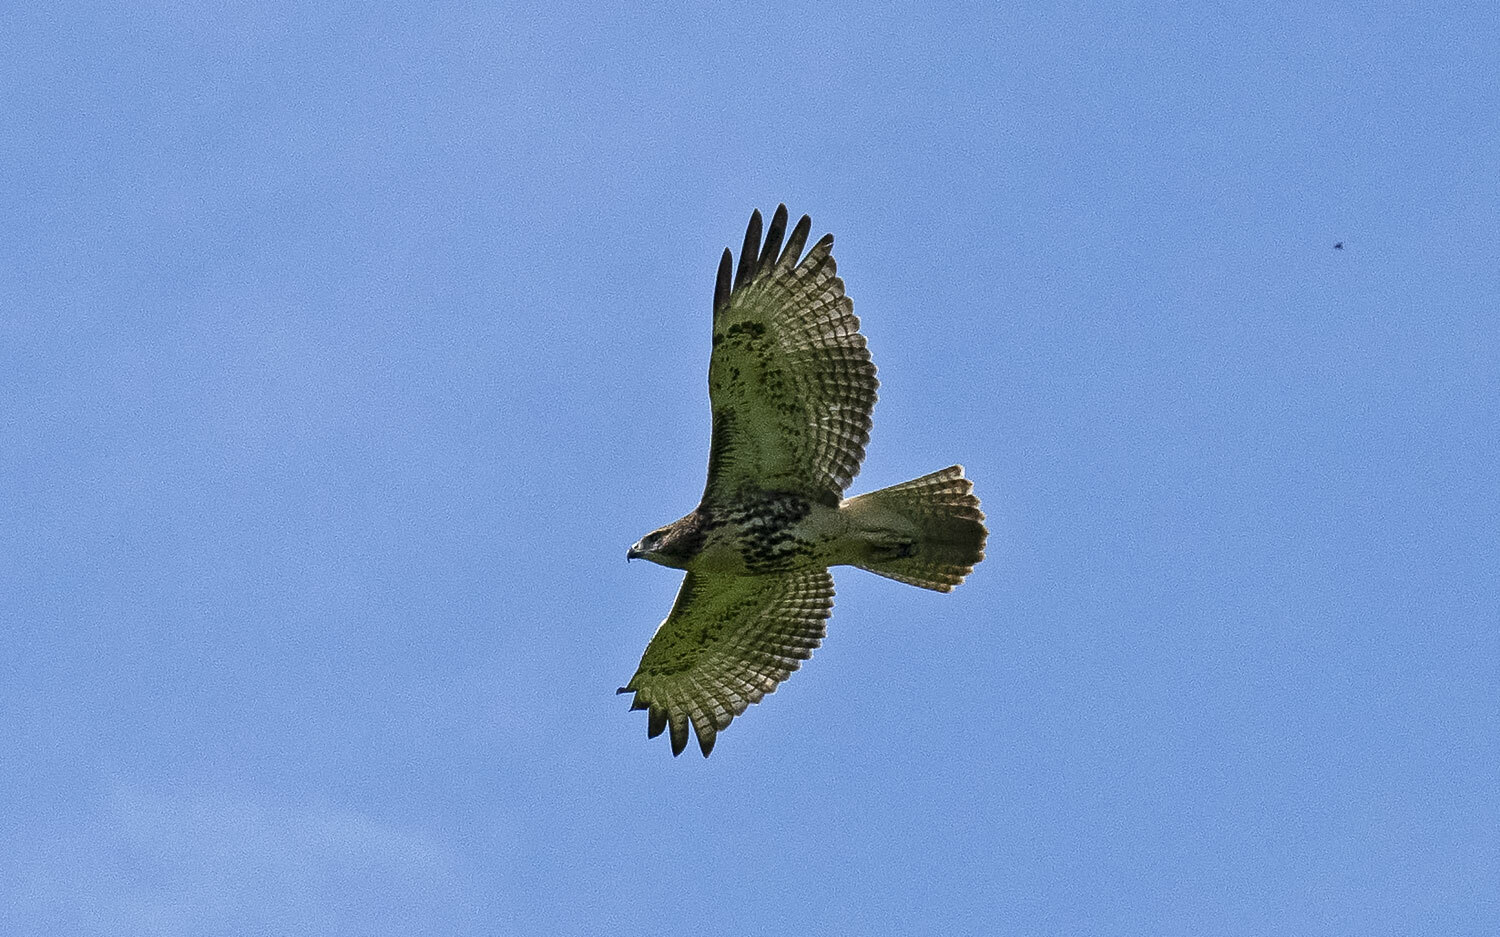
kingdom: Animalia
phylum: Chordata
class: Aves
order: Accipitriformes
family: Accipitridae
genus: Buteo
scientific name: Buteo jamaicensis
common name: Red-tailed hawk
